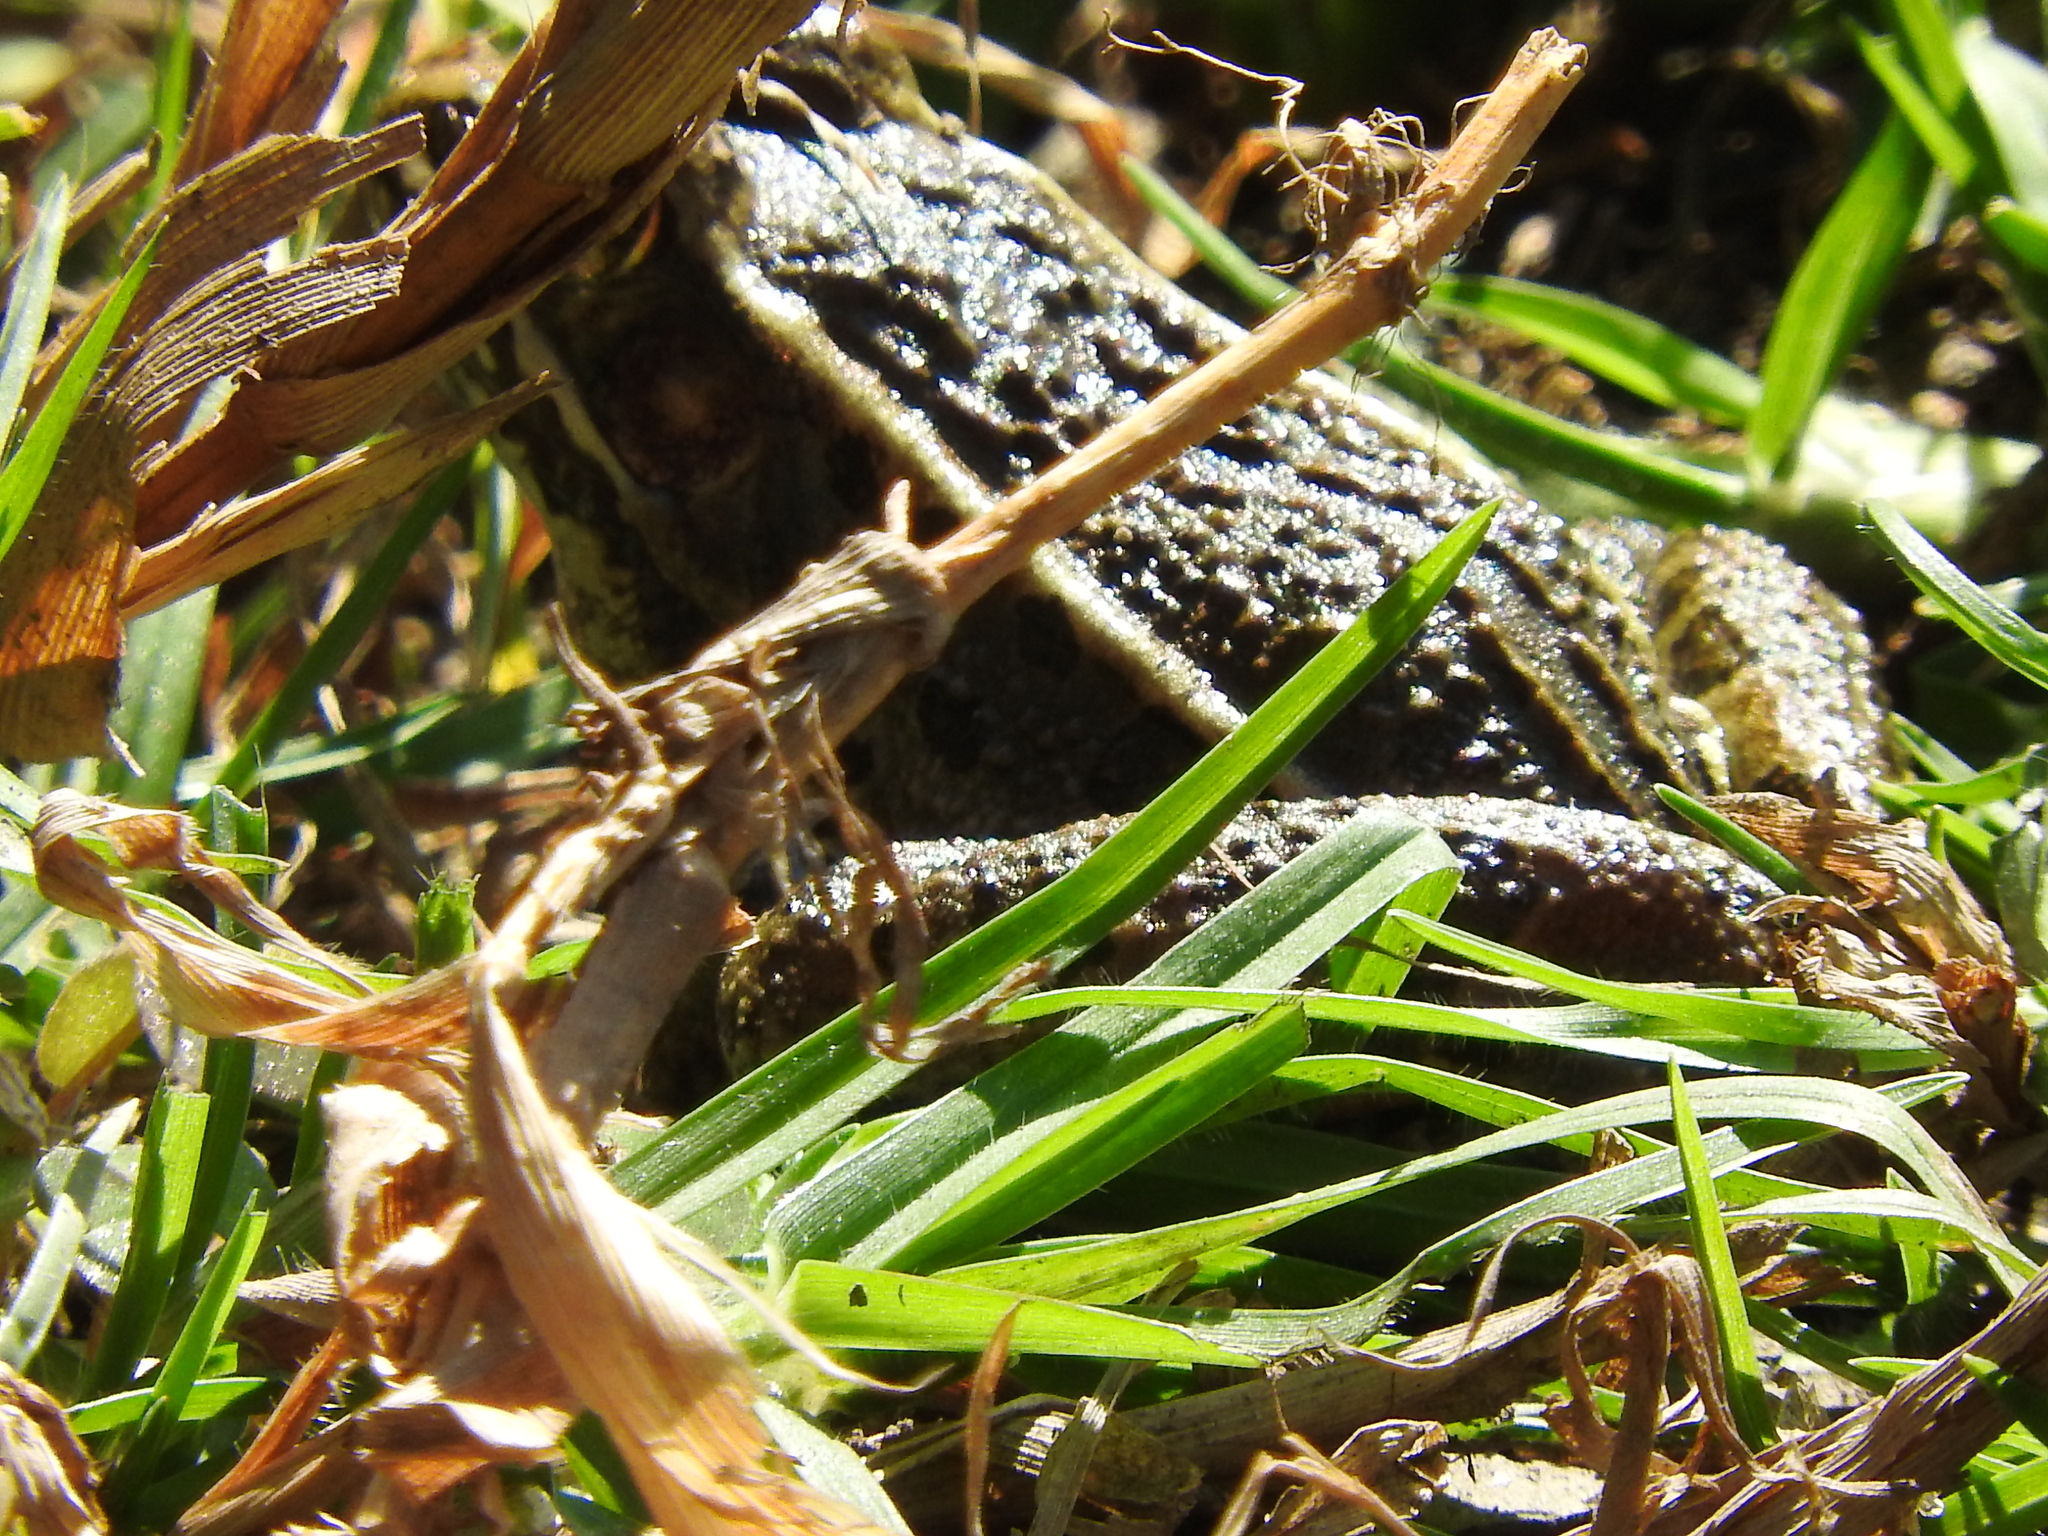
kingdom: Animalia
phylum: Chordata
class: Amphibia
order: Anura
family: Ranidae
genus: Lithobates
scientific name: Lithobates neovolcanicus
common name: Transverse volcanic leopard frog
